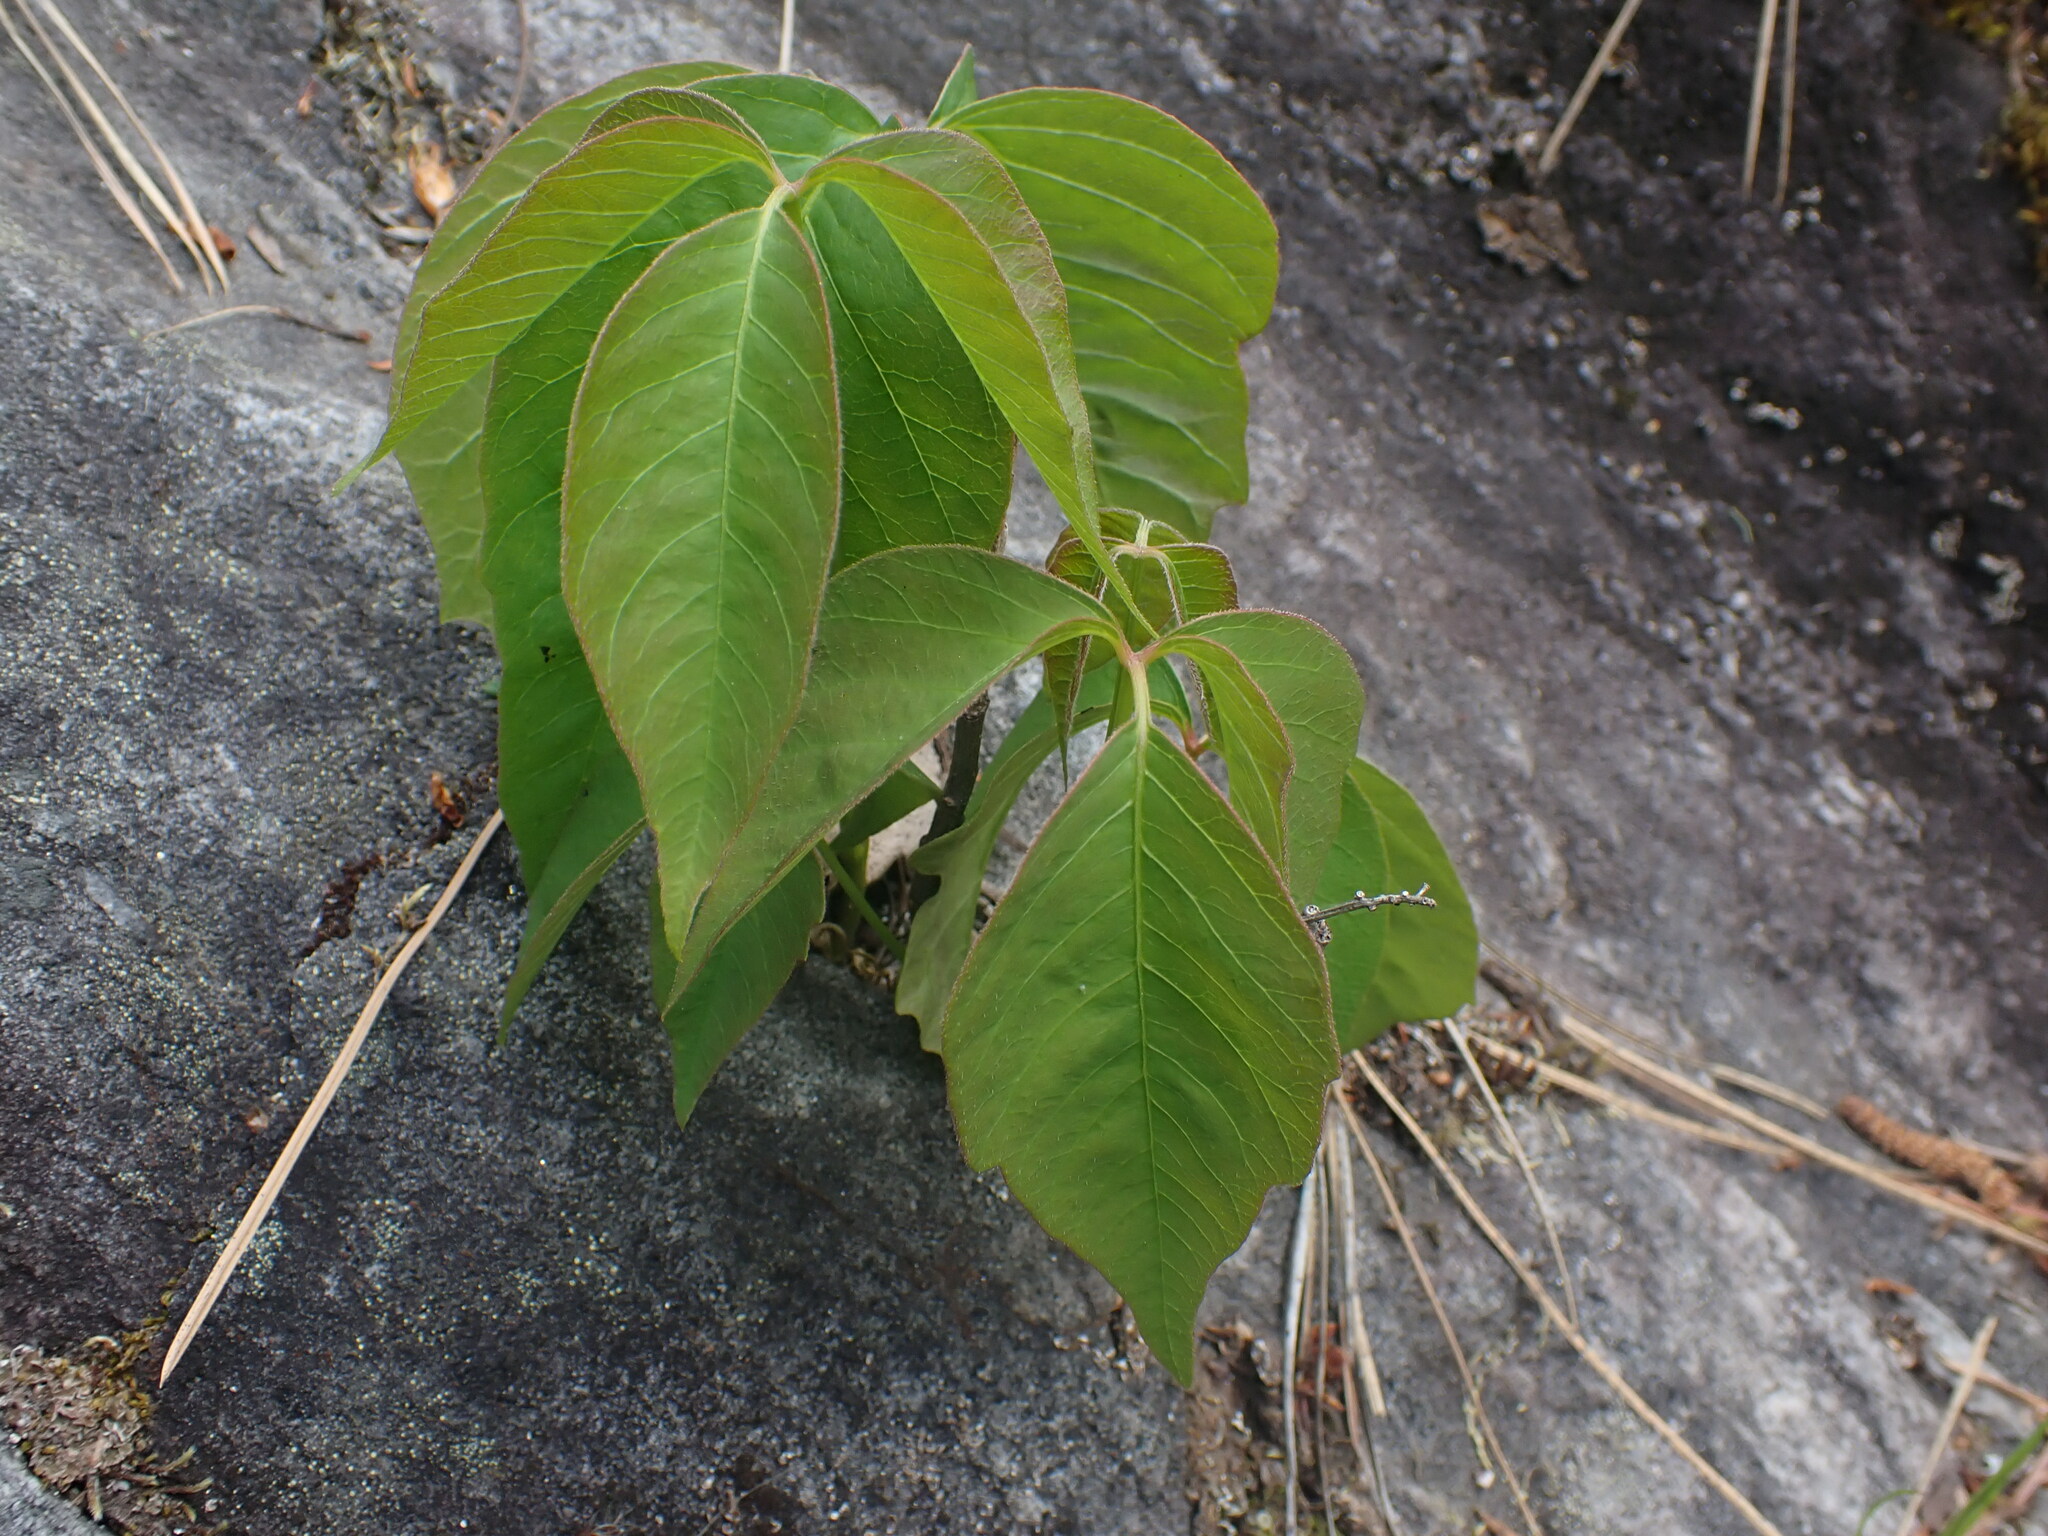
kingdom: Plantae
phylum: Tracheophyta
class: Magnoliopsida
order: Sapindales
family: Anacardiaceae
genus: Toxicodendron
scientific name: Toxicodendron rydbergii
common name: Rydberg's poison-ivy
